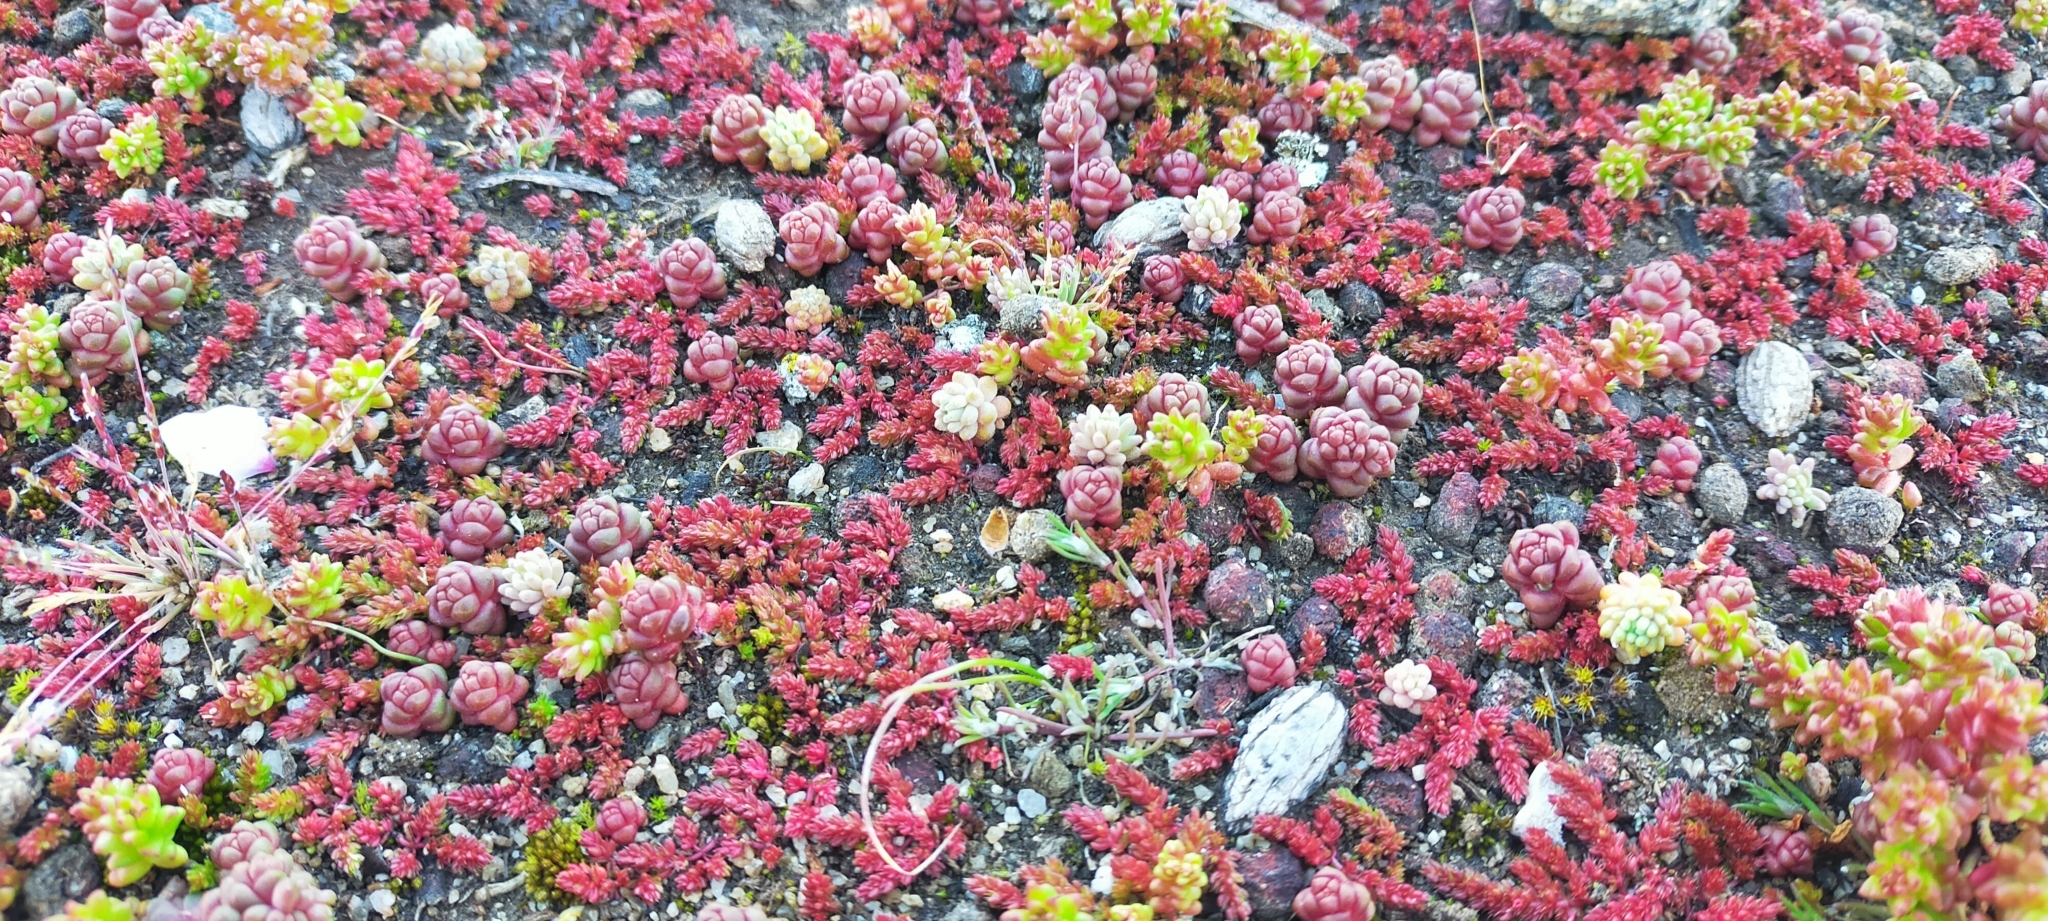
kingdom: Plantae
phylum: Tracheophyta
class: Magnoliopsida
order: Saxifragales
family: Crassulaceae
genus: Sedum
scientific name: Sedum andegavense
